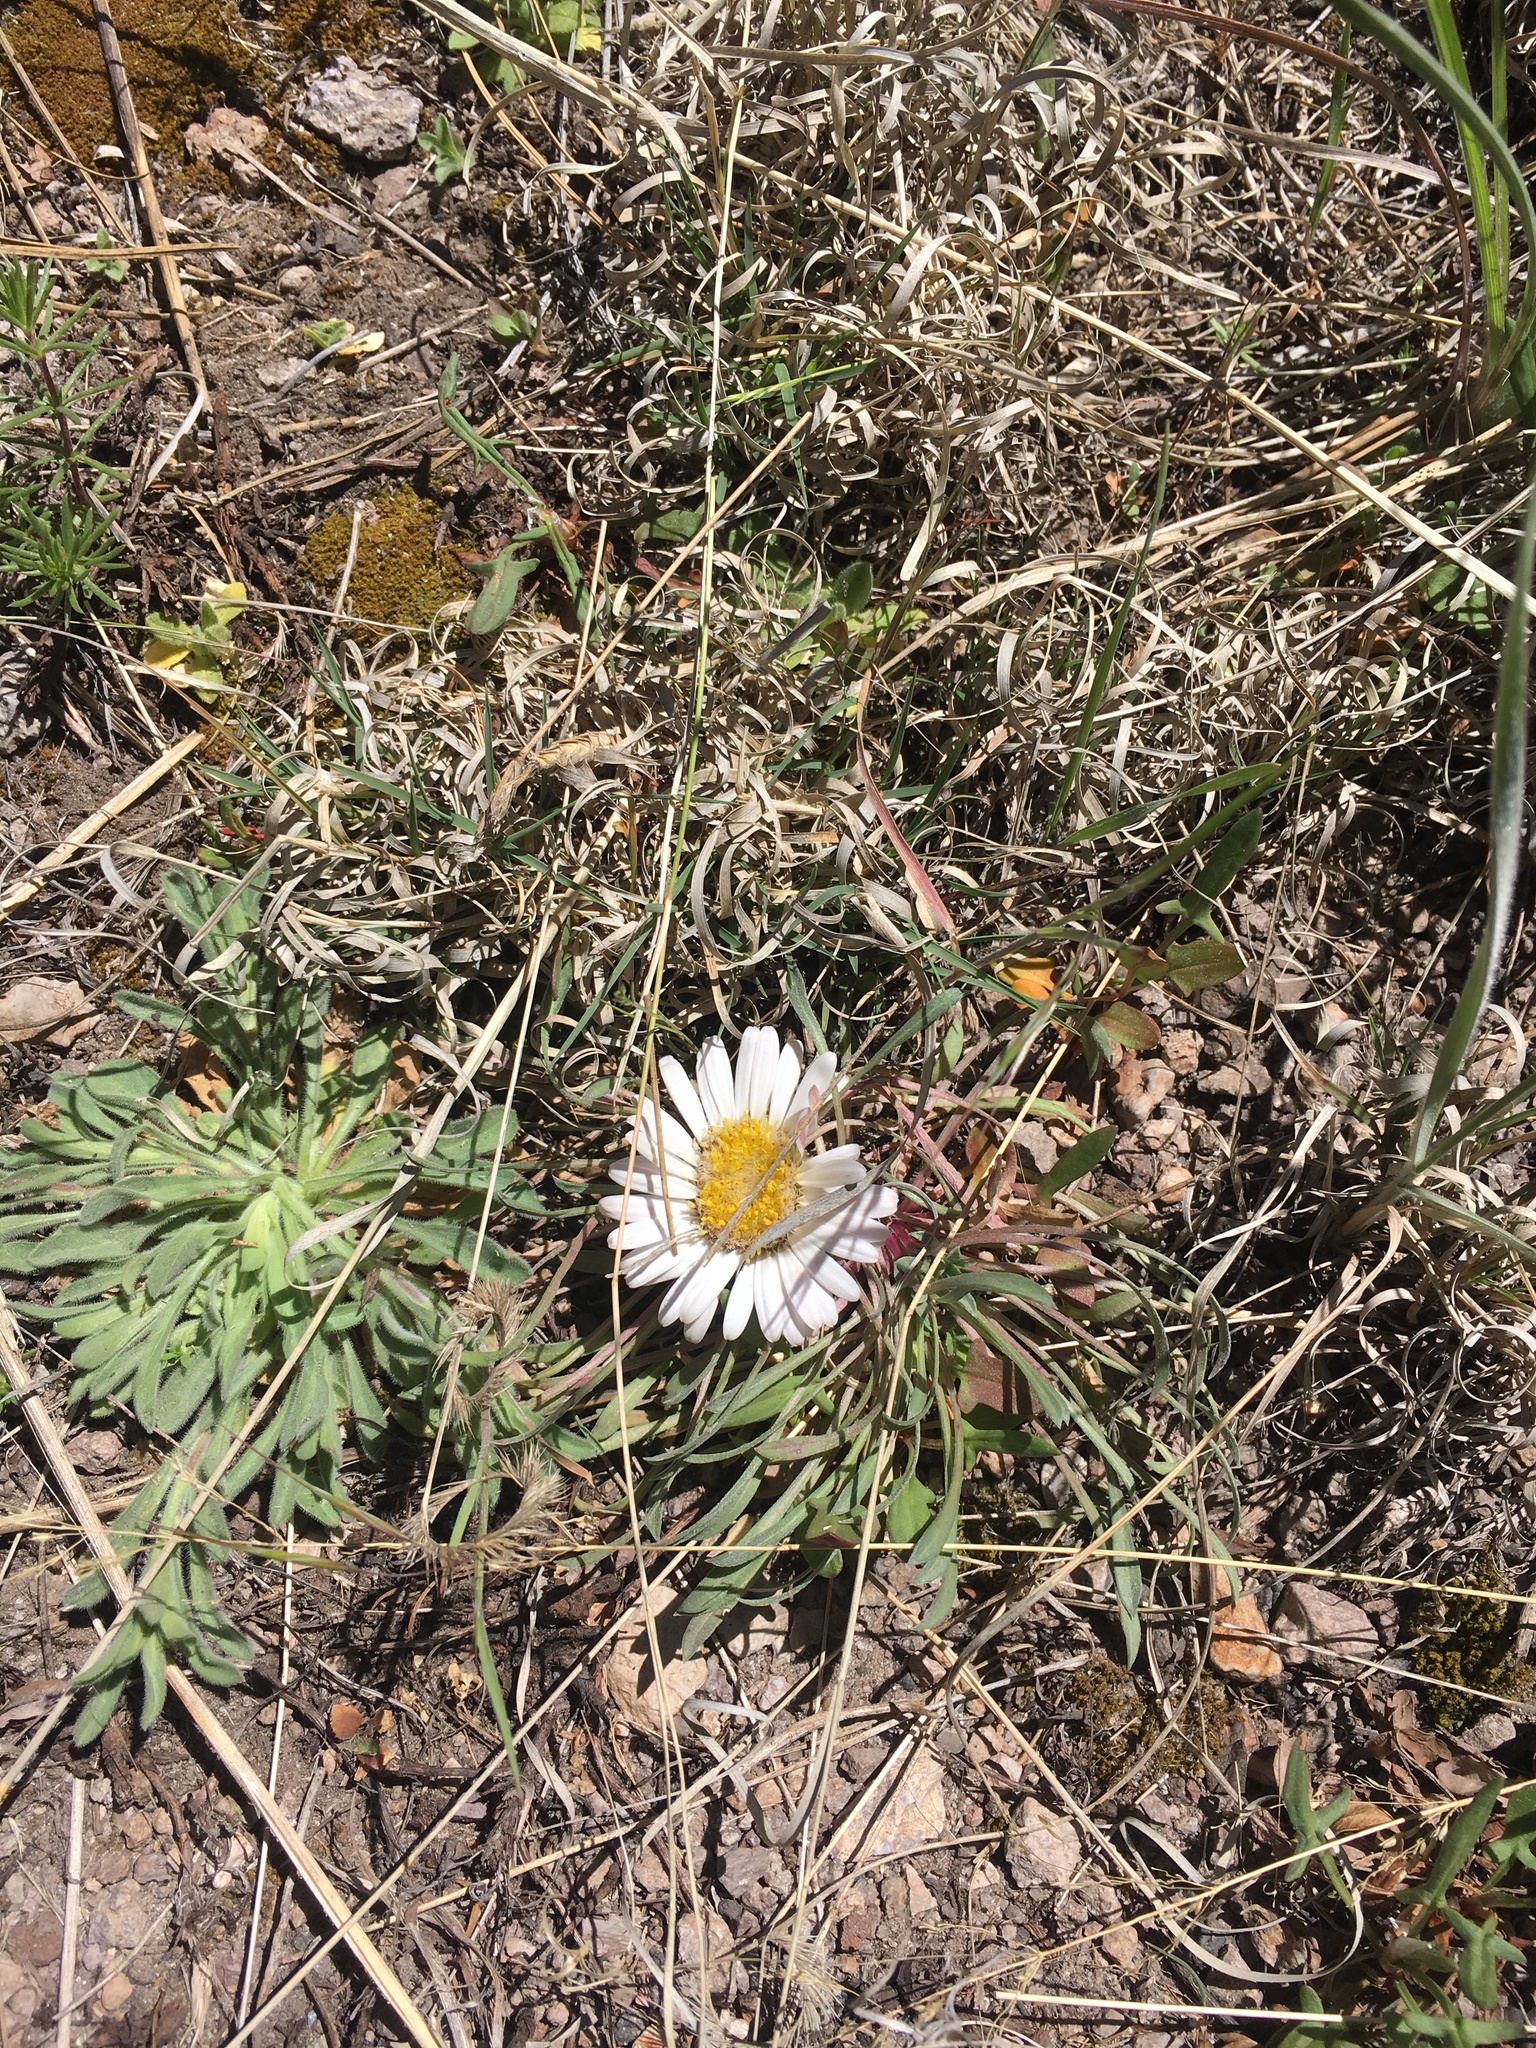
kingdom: Plantae
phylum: Tracheophyta
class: Magnoliopsida
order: Asterales
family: Asteraceae
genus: Townsendia
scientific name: Townsendia exscapa
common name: Dwarf townsendia
